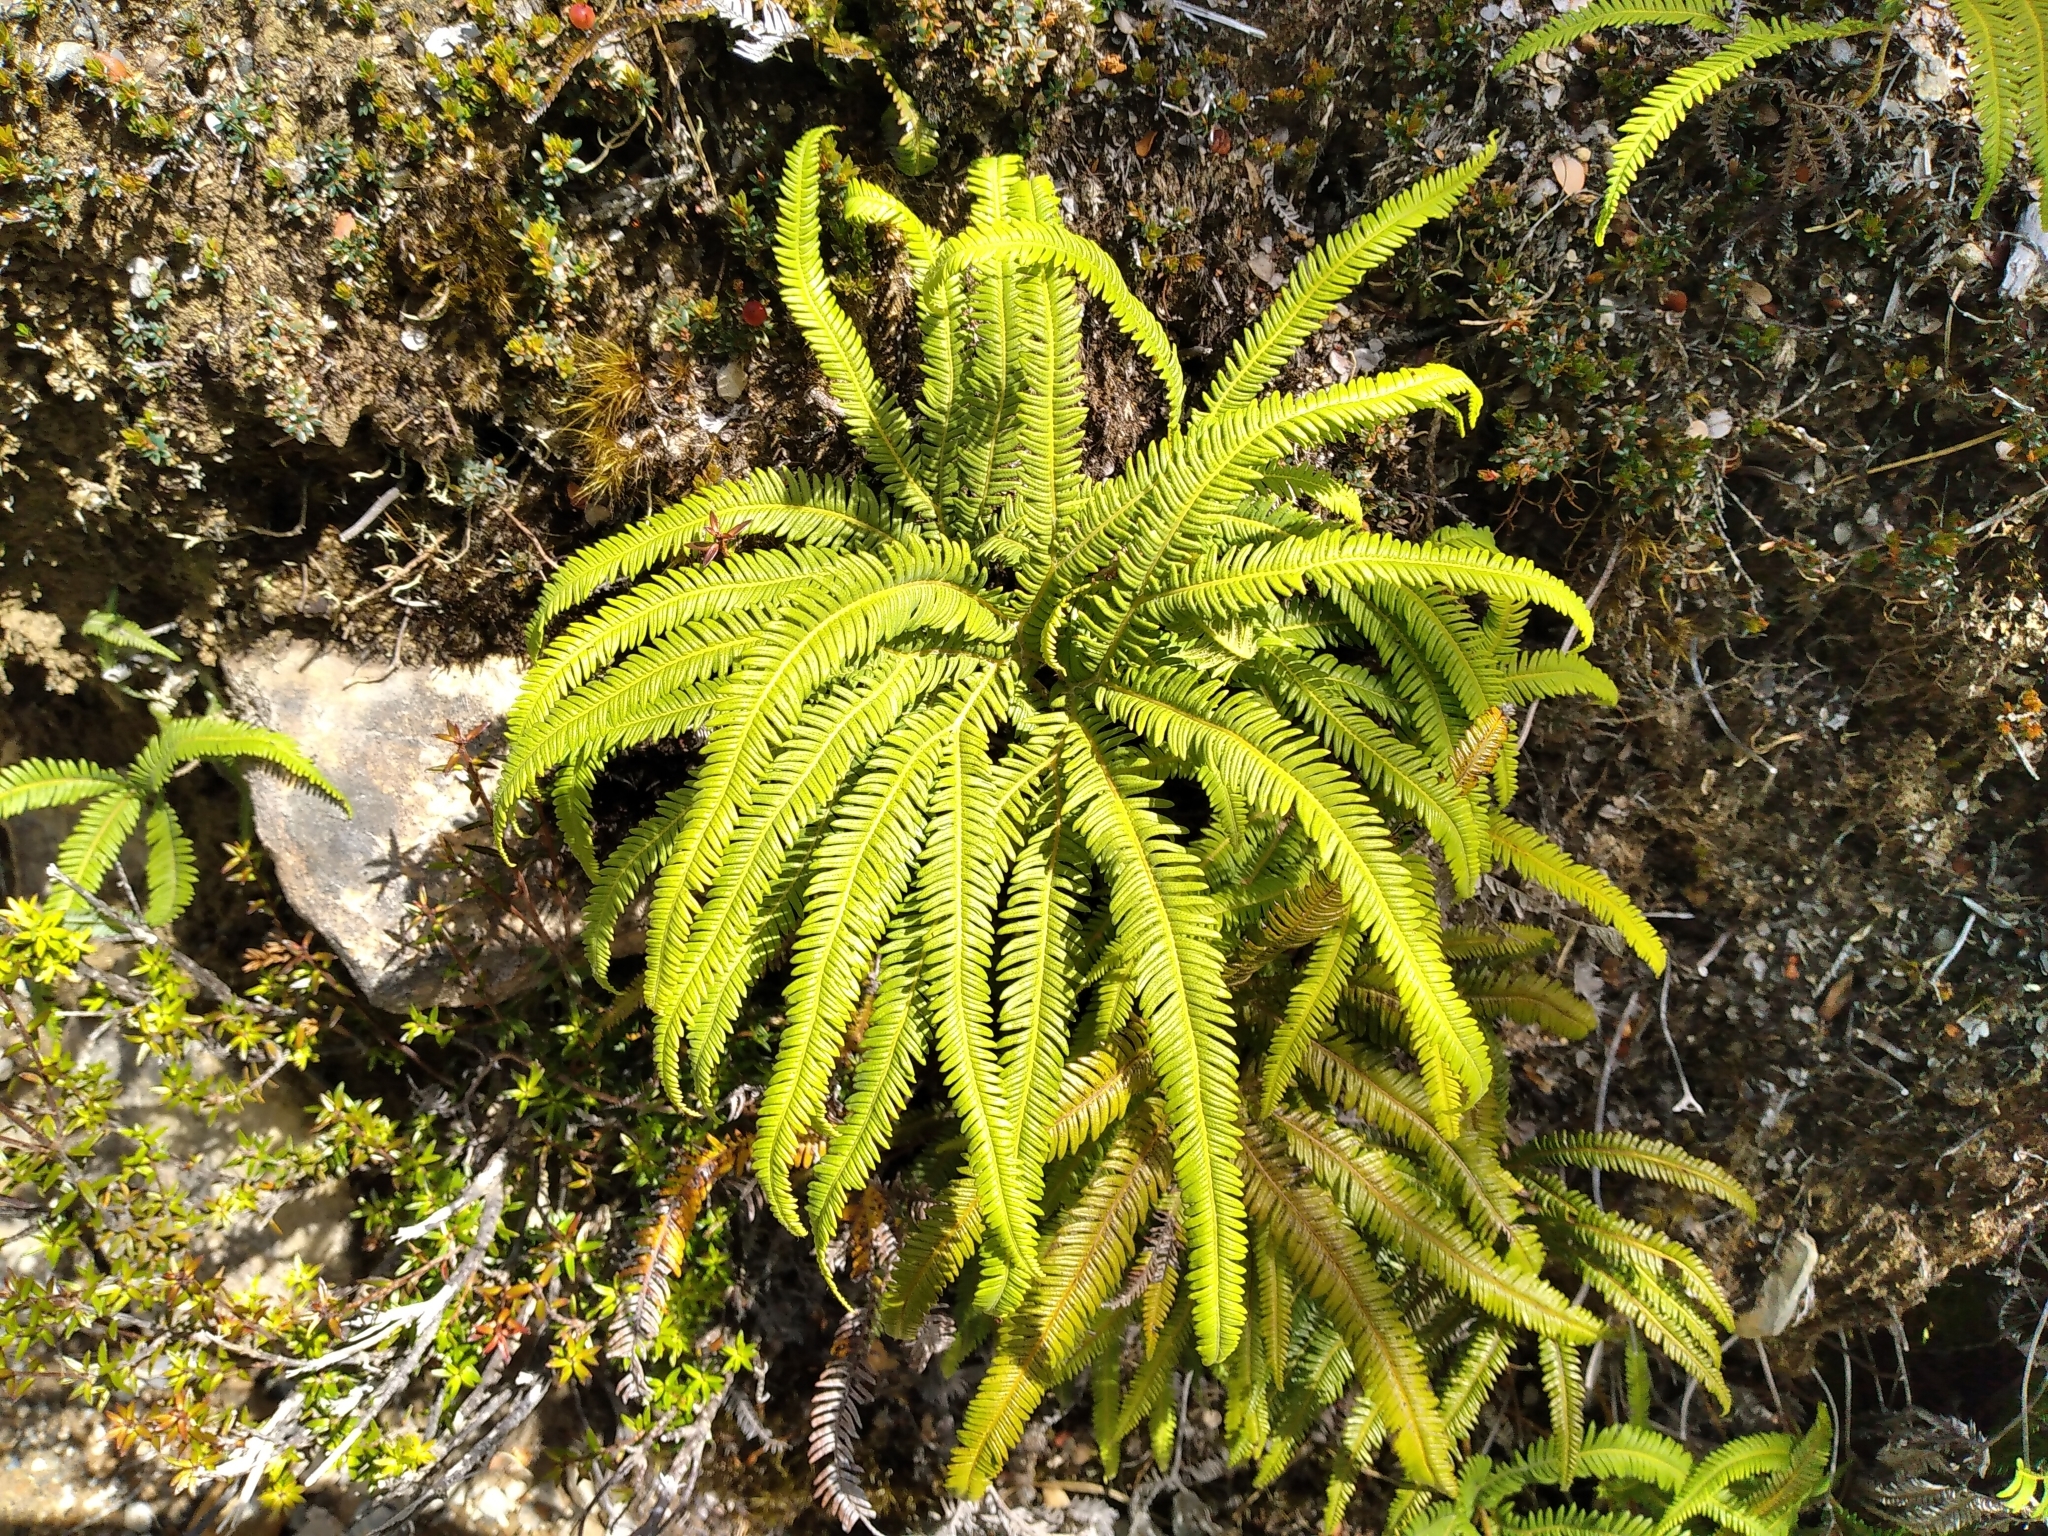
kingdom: Plantae
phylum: Tracheophyta
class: Polypodiopsida
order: Gleicheniales
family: Gleicheniaceae
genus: Sticherus
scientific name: Sticherus cunninghamii
